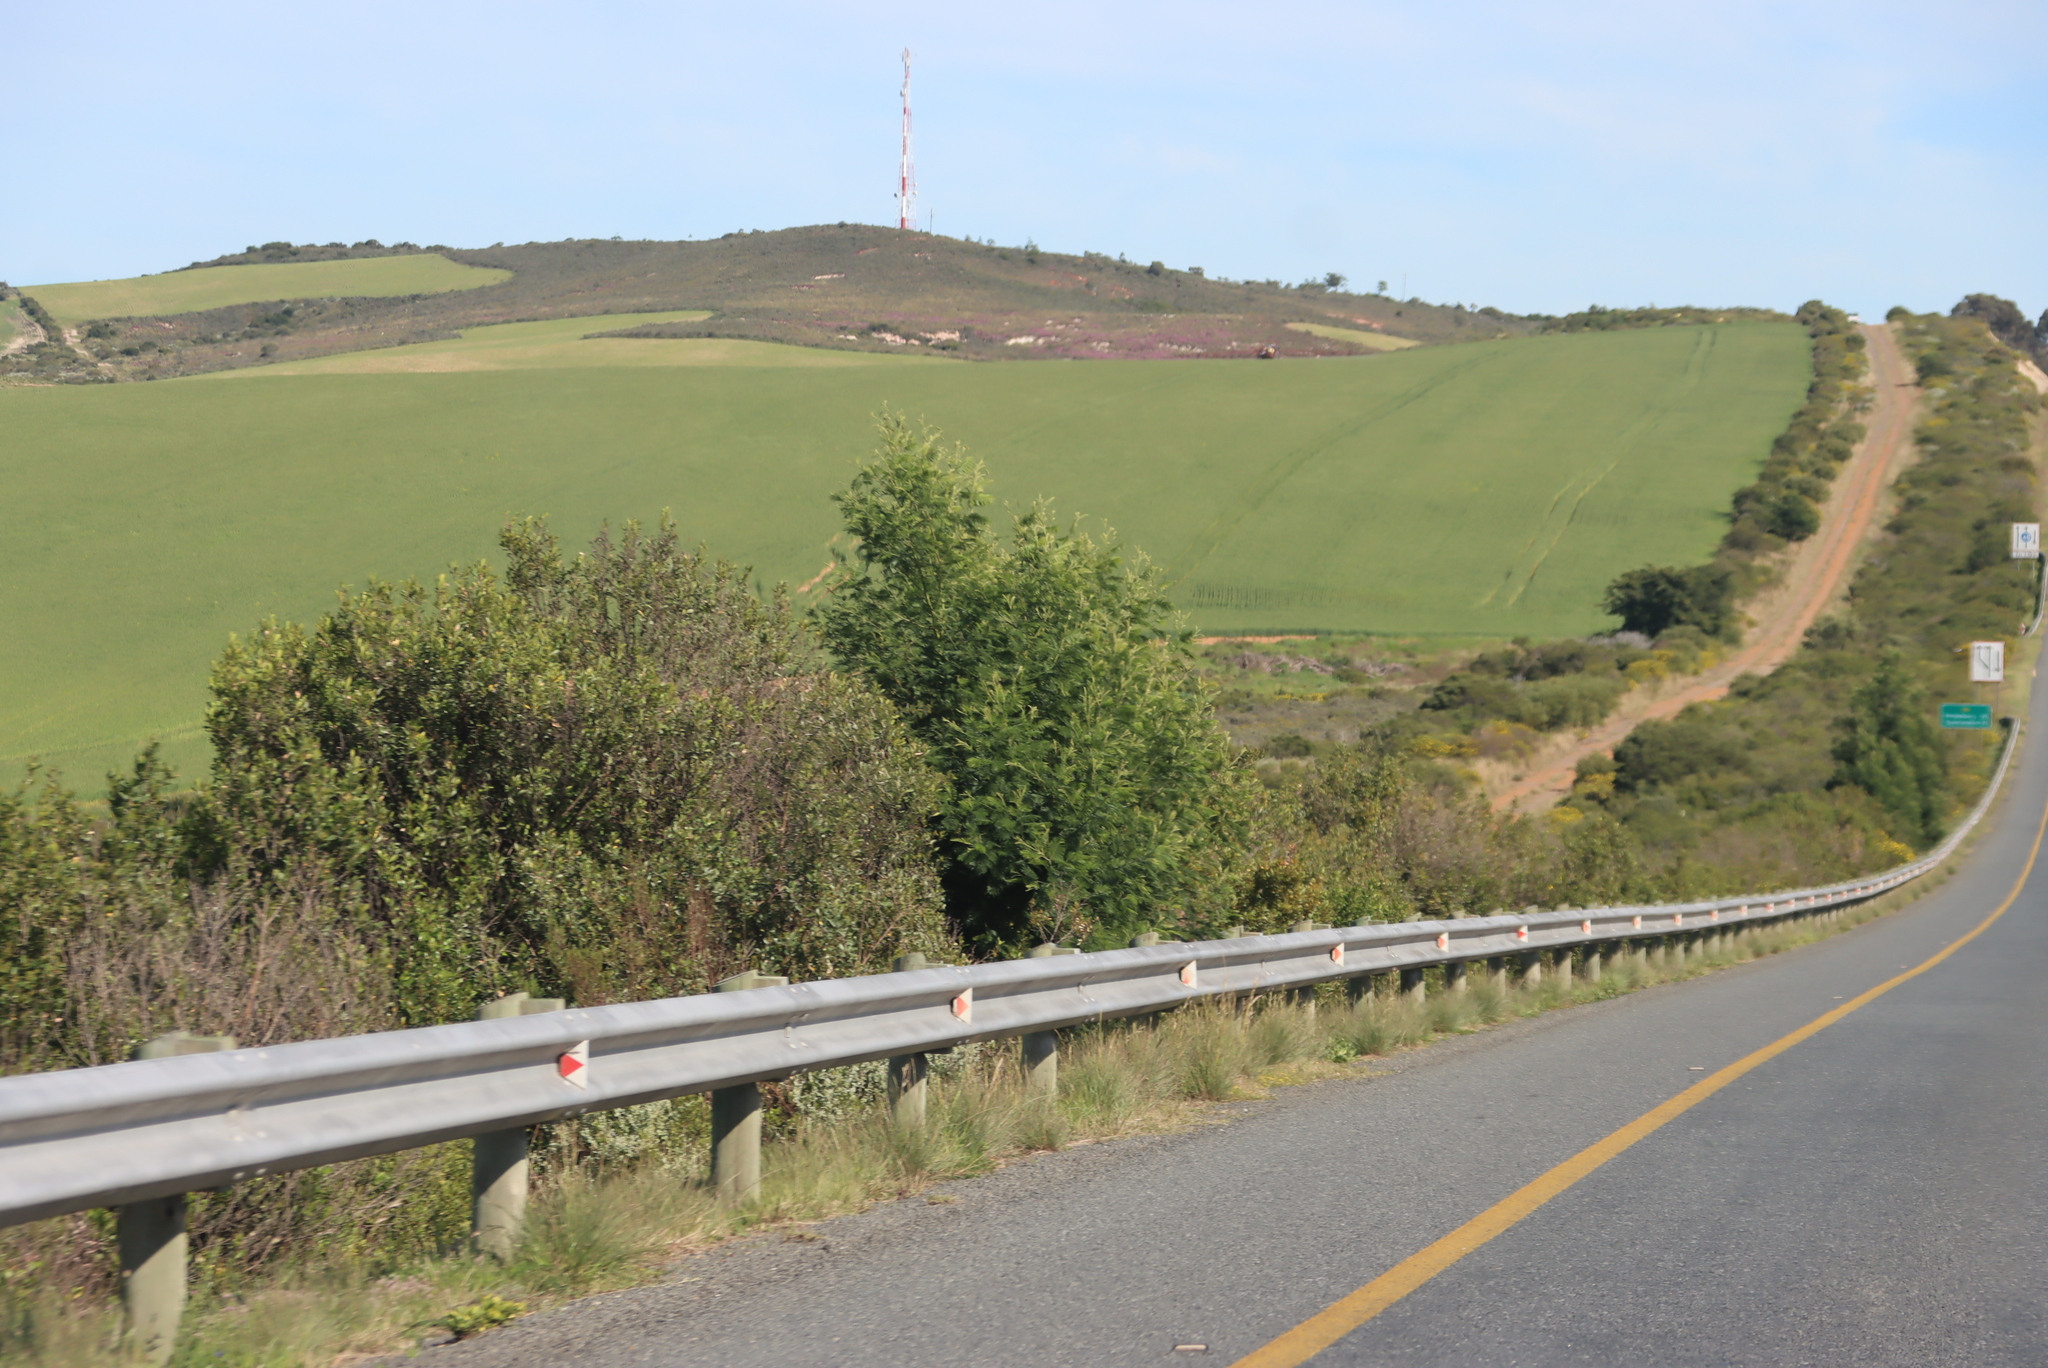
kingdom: Plantae
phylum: Tracheophyta
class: Magnoliopsida
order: Fabales
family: Fabaceae
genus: Acacia
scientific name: Acacia mearnsii
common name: Black wattle
